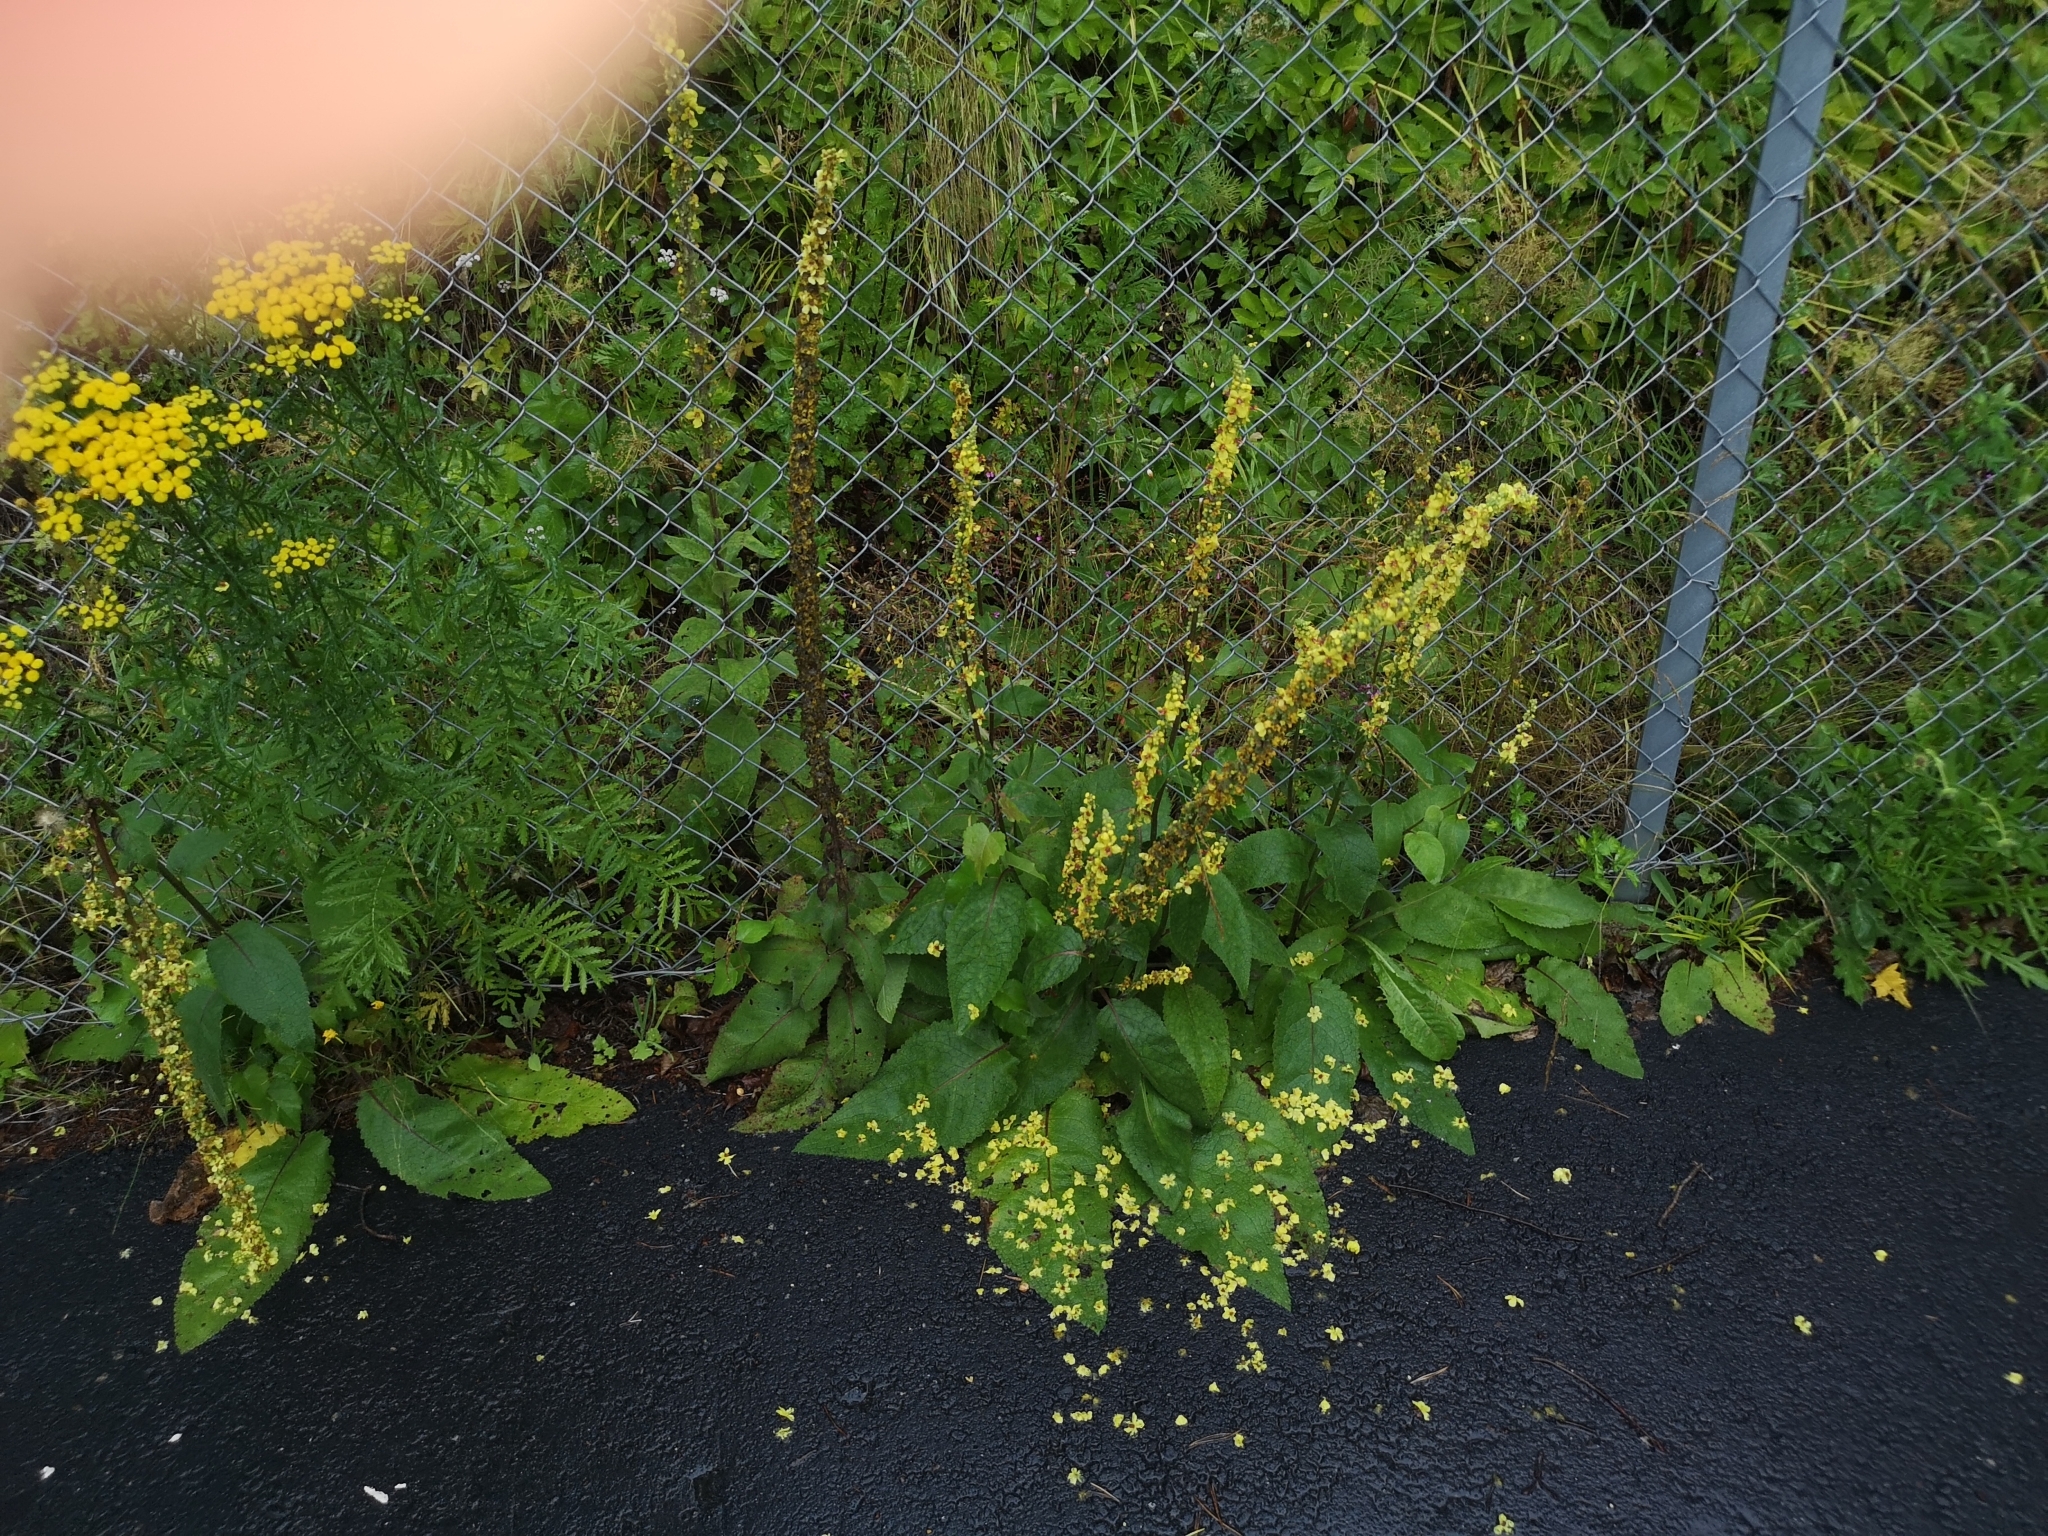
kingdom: Plantae
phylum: Tracheophyta
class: Magnoliopsida
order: Lamiales
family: Scrophulariaceae
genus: Verbascum
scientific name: Verbascum nigrum
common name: Dark mullein
